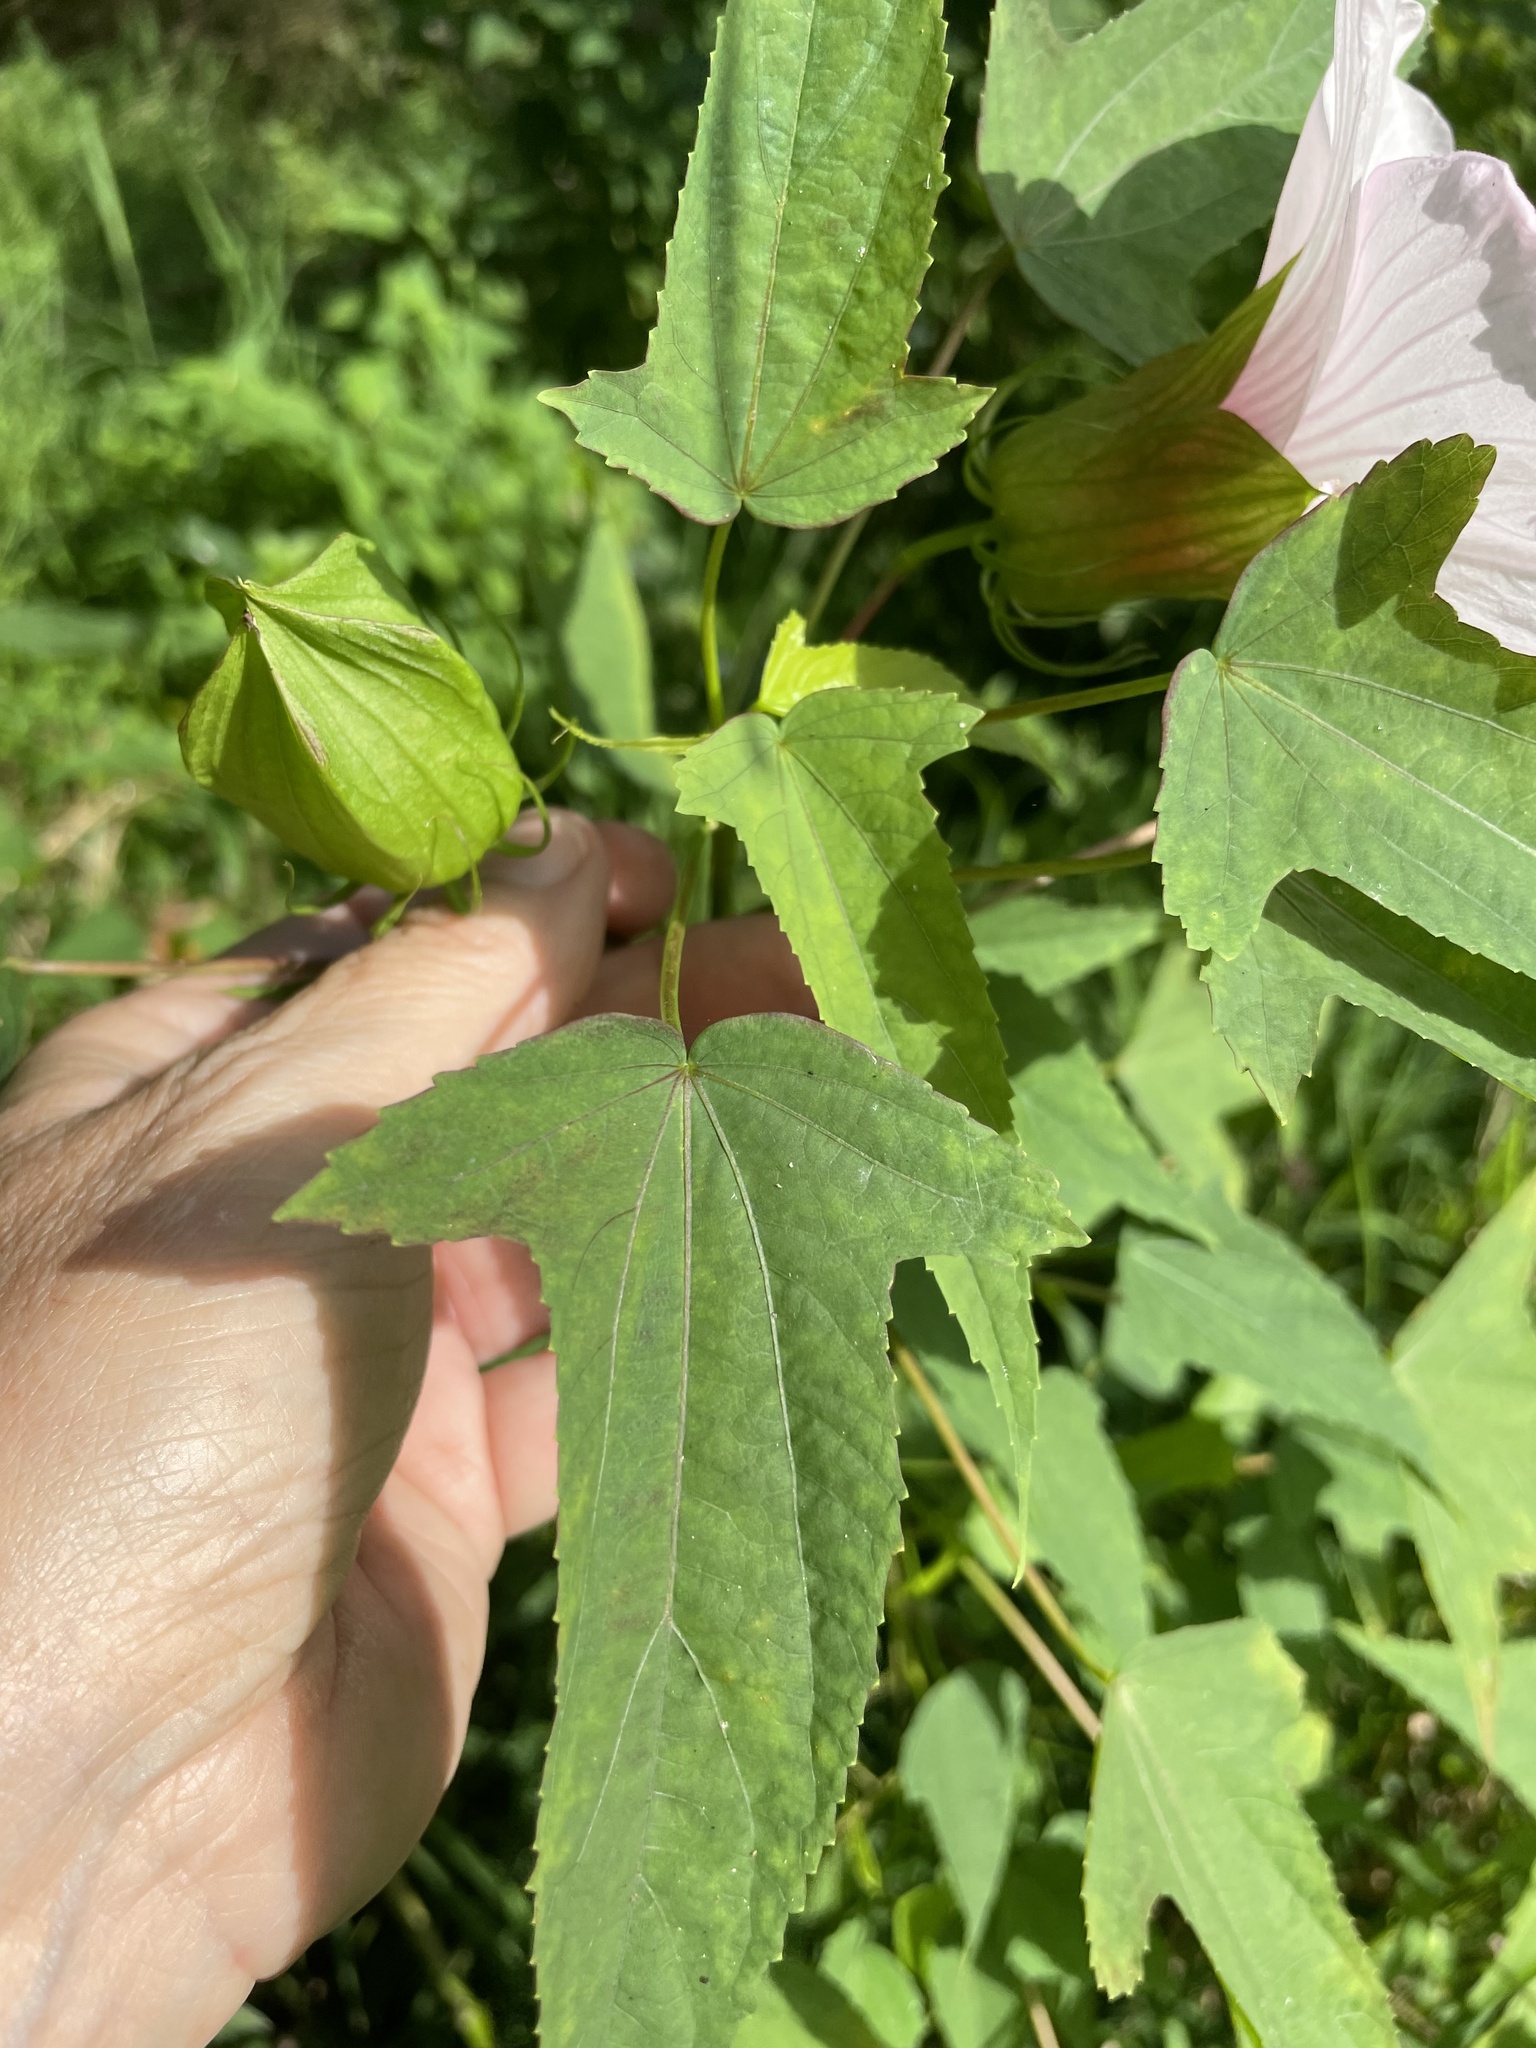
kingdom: Plantae
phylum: Tracheophyta
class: Magnoliopsida
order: Malvales
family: Malvaceae
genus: Hibiscus
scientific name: Hibiscus laevis
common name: Scarlet rose-mallow
